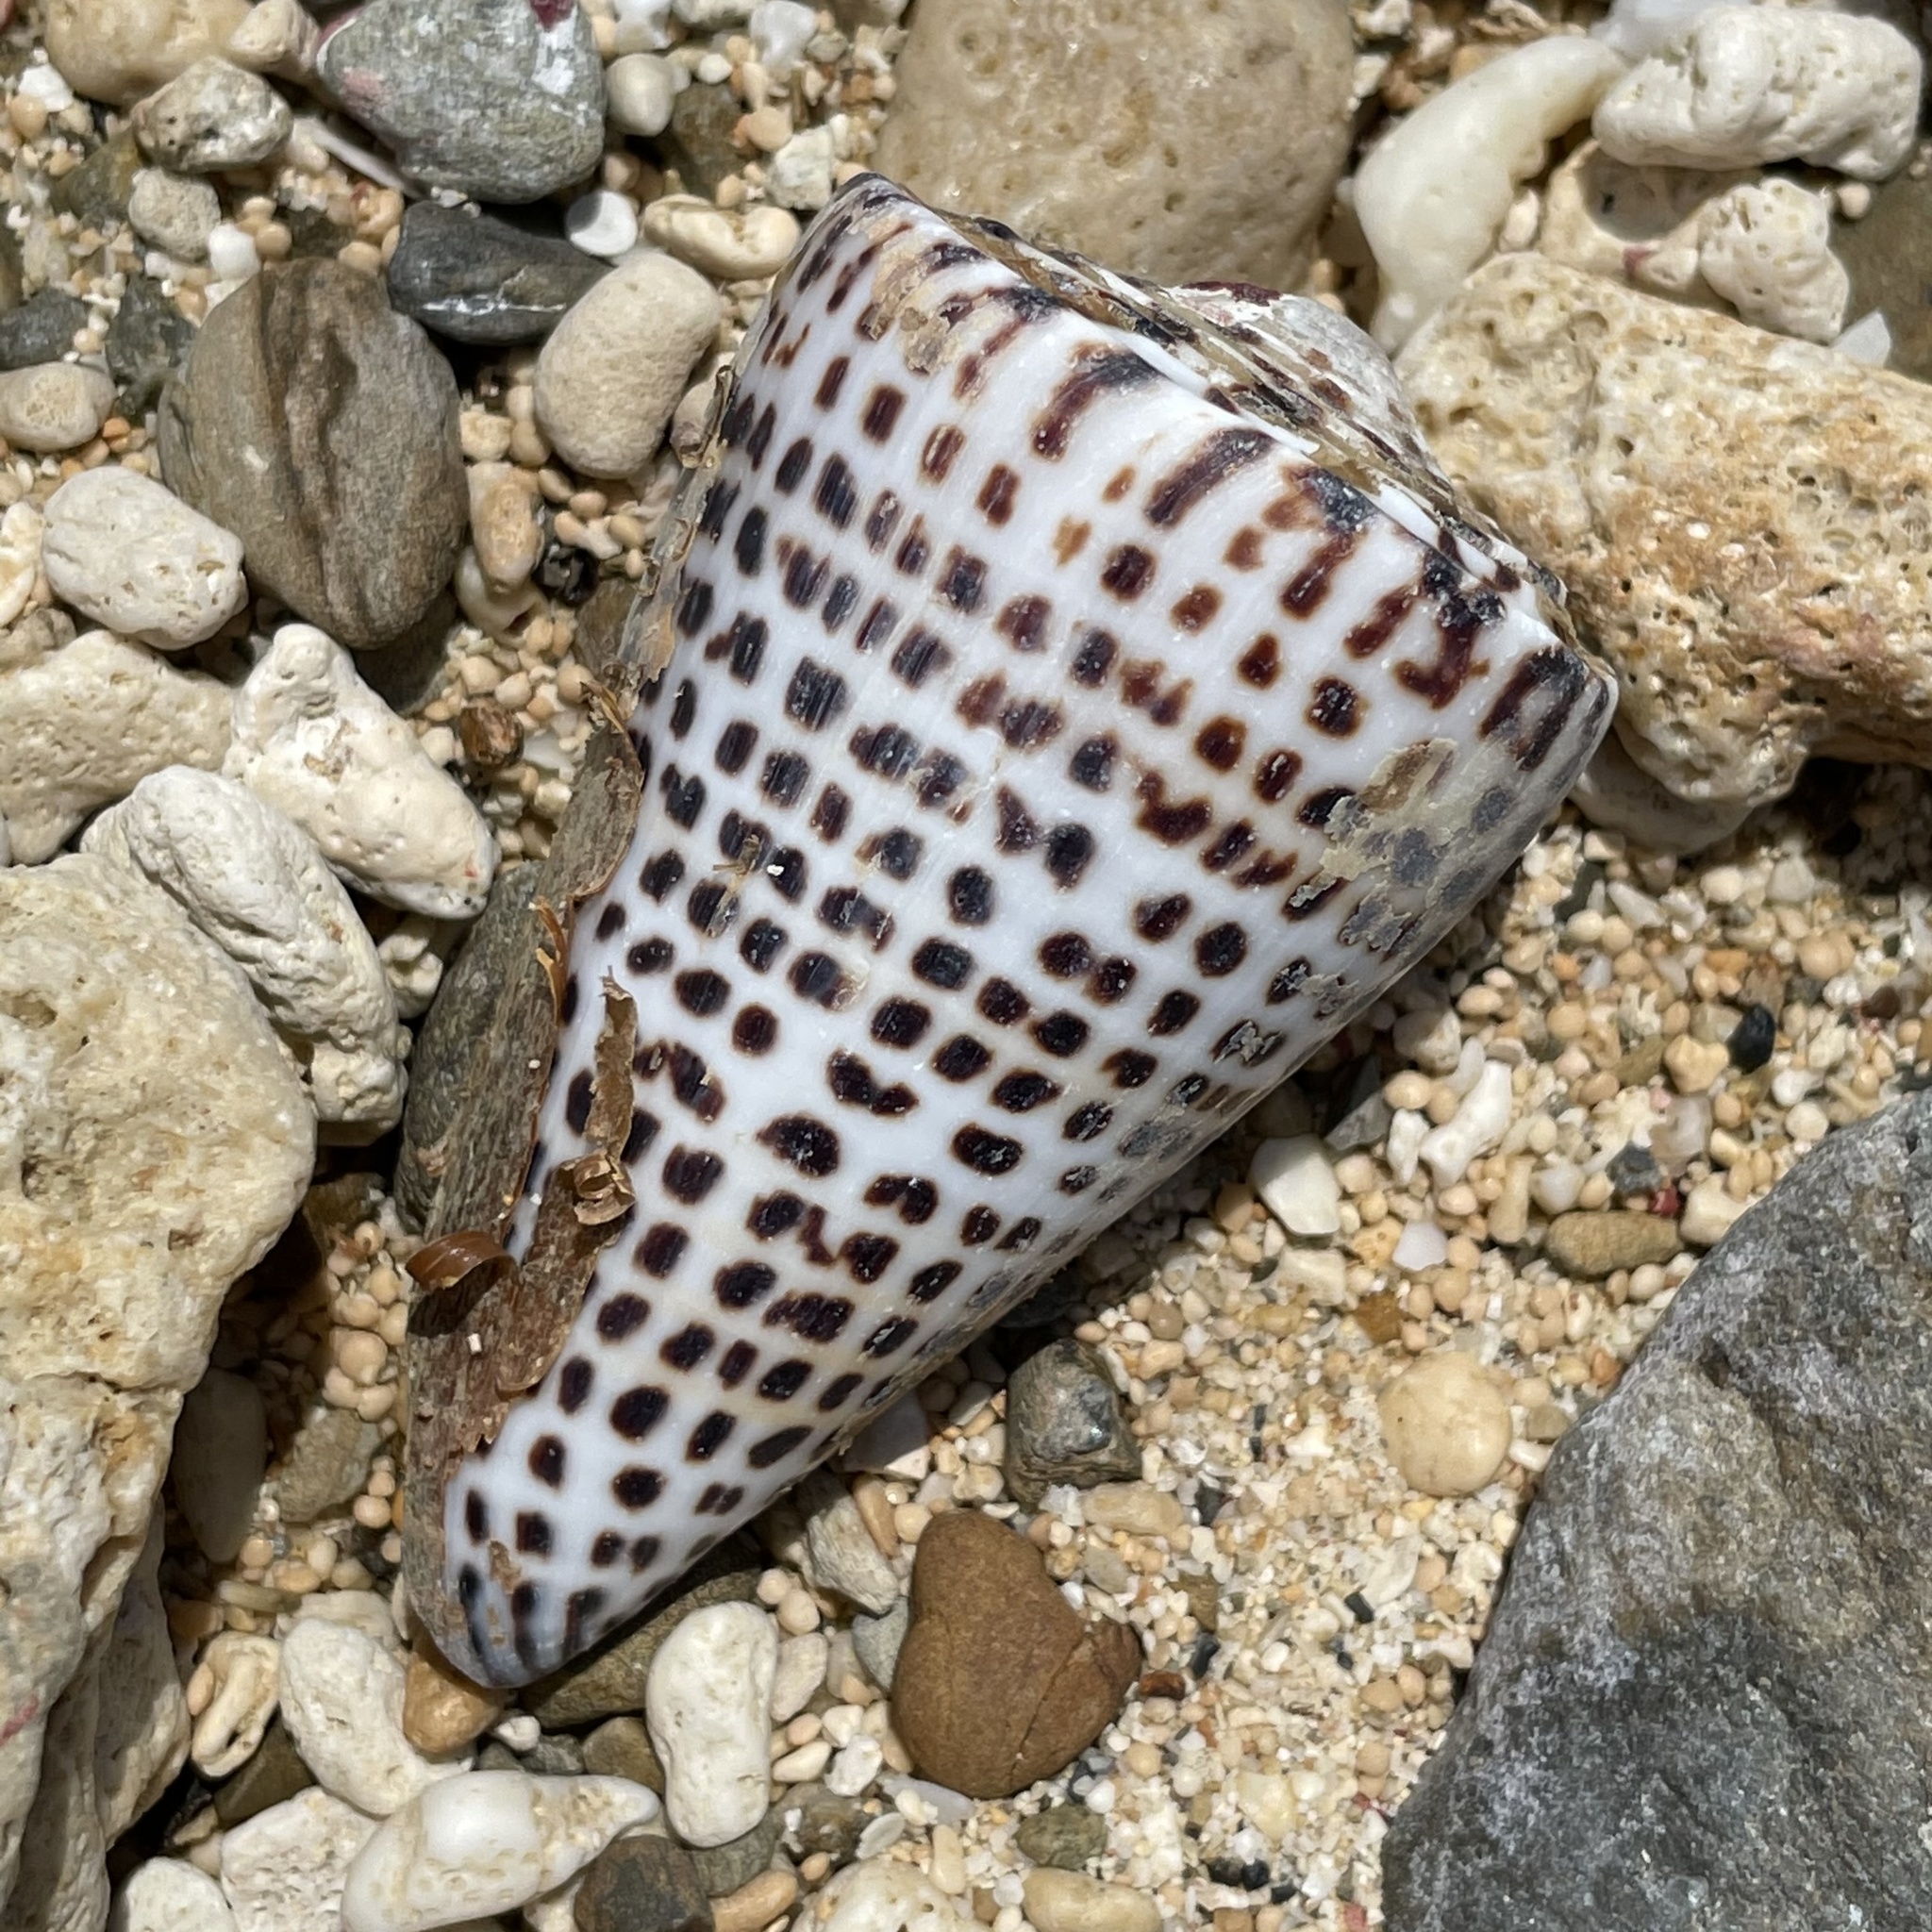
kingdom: Animalia
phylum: Mollusca
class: Gastropoda
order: Neogastropoda
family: Conidae
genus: Conus
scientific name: Conus litteratus
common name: Lettered cone
